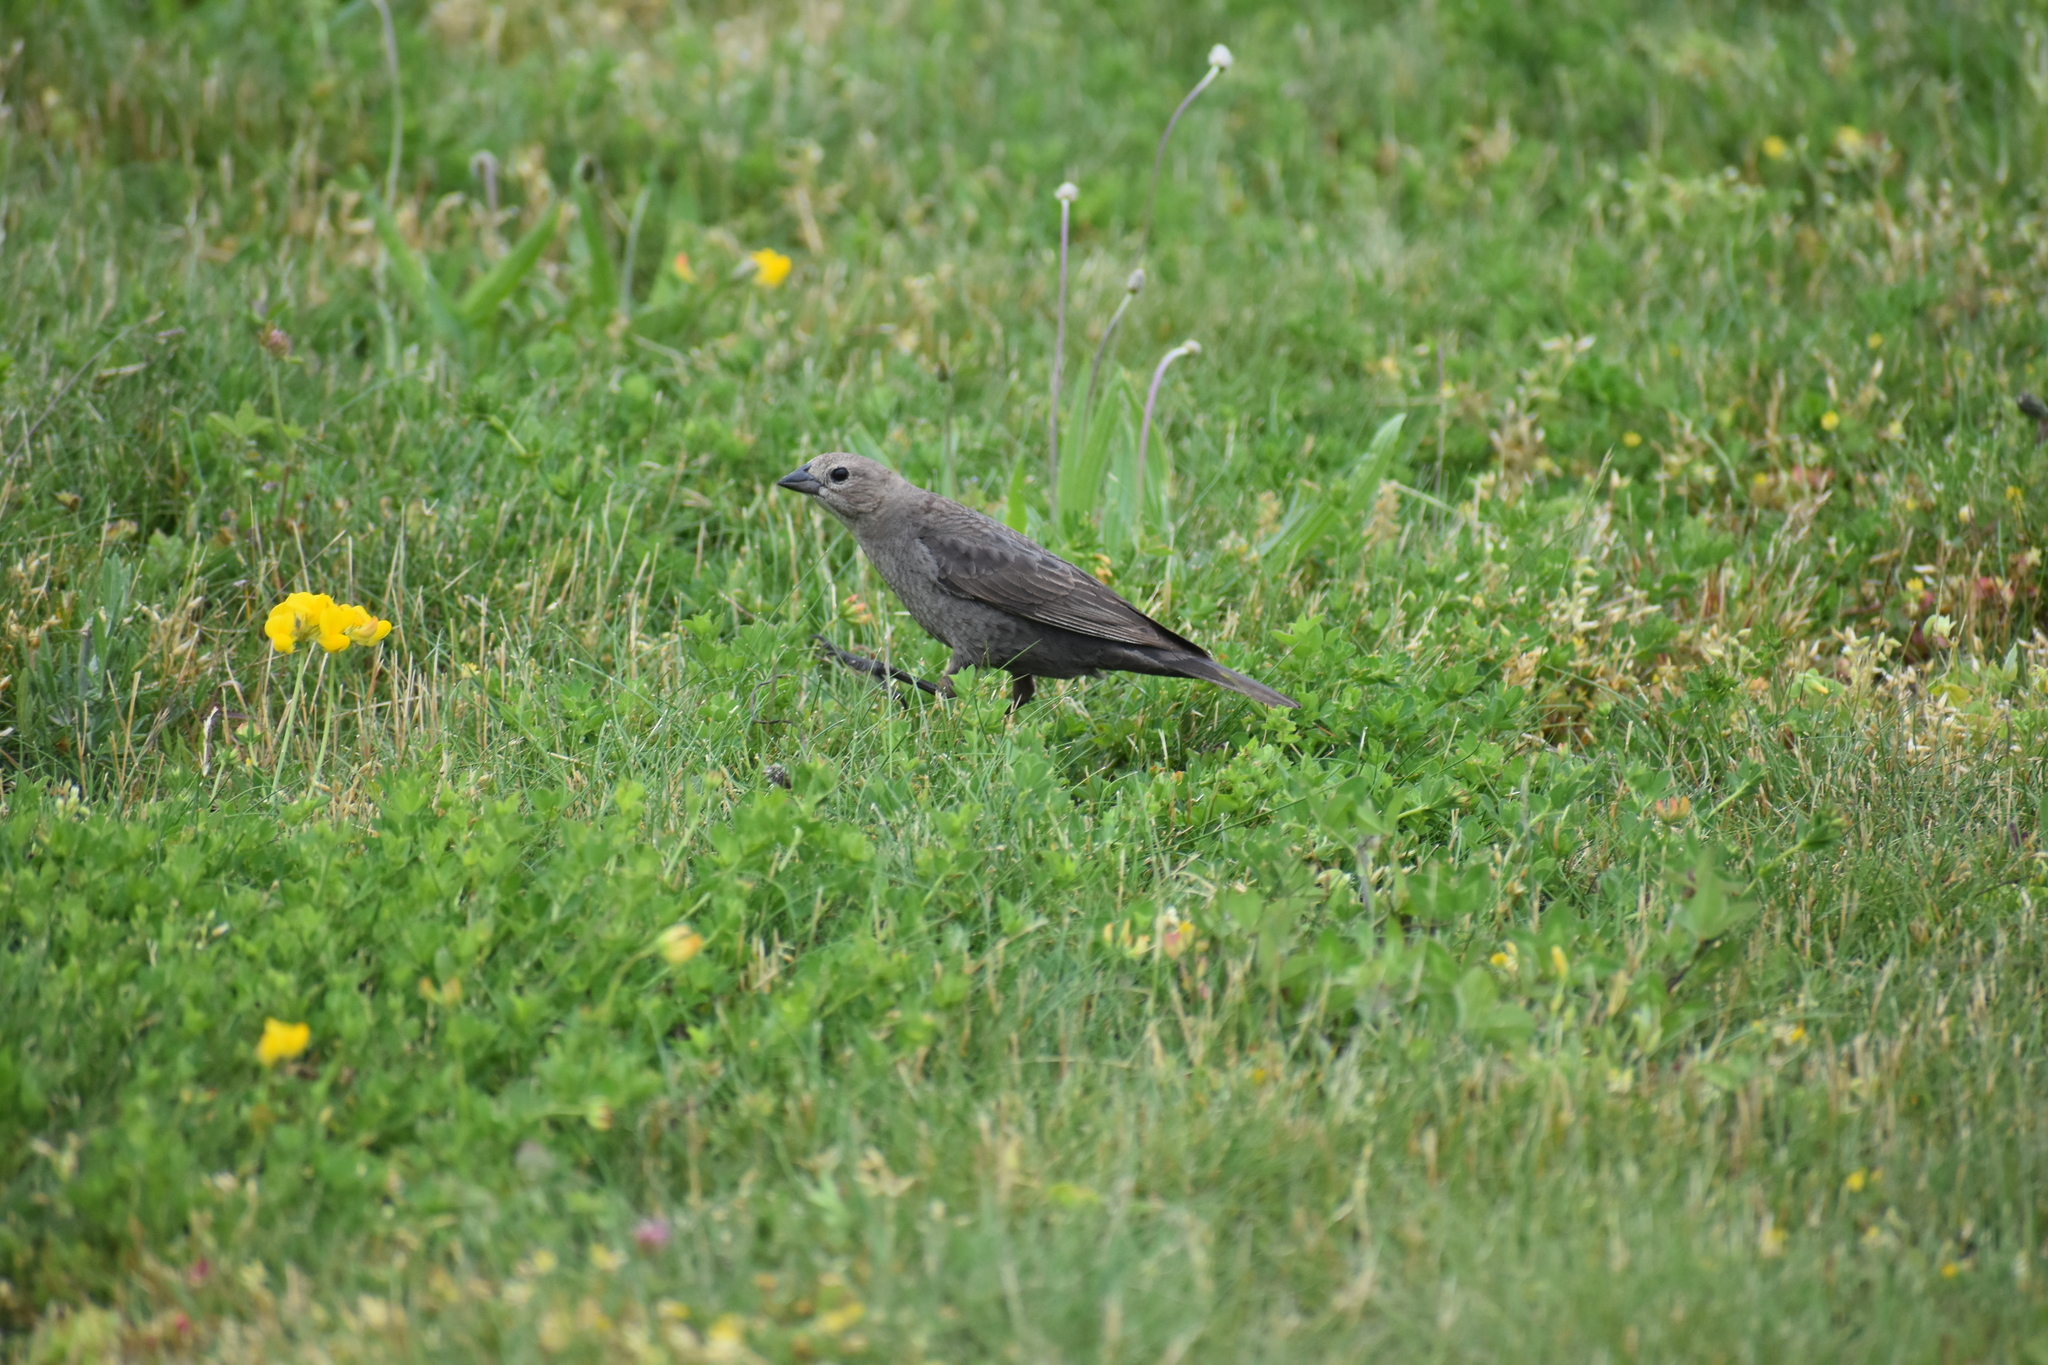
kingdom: Animalia
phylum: Chordata
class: Aves
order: Passeriformes
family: Icteridae
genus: Molothrus
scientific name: Molothrus ater
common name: Brown-headed cowbird
